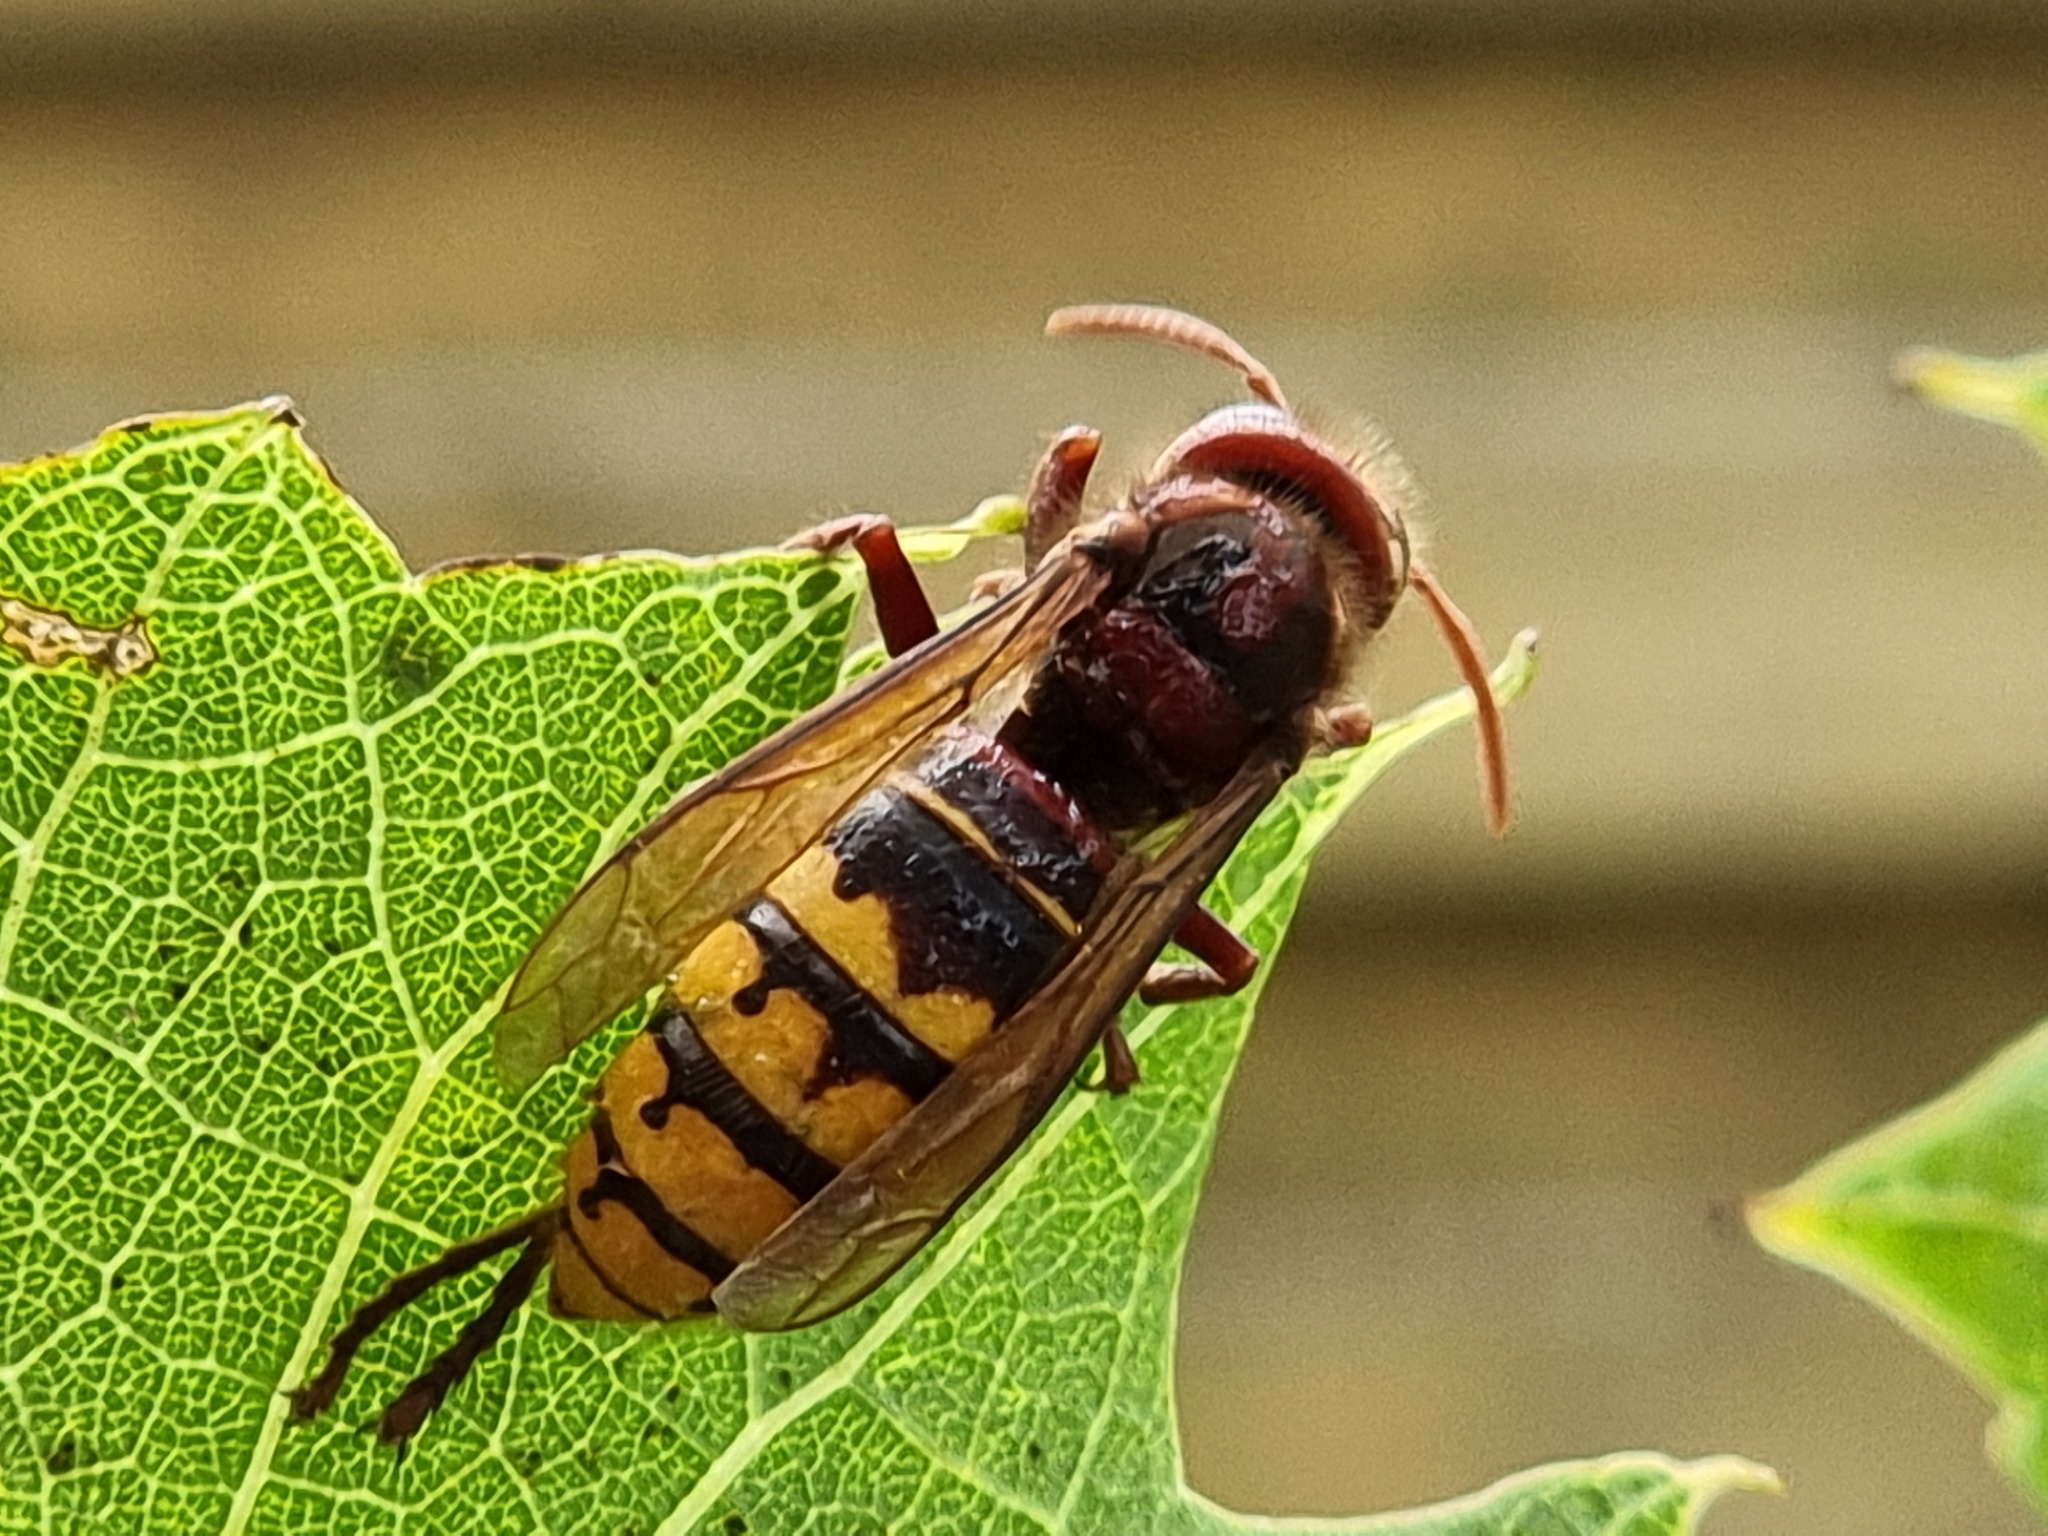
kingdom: Animalia
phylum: Arthropoda
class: Insecta
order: Hymenoptera
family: Vespidae
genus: Vespa
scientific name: Vespa crabro
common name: Hornet
